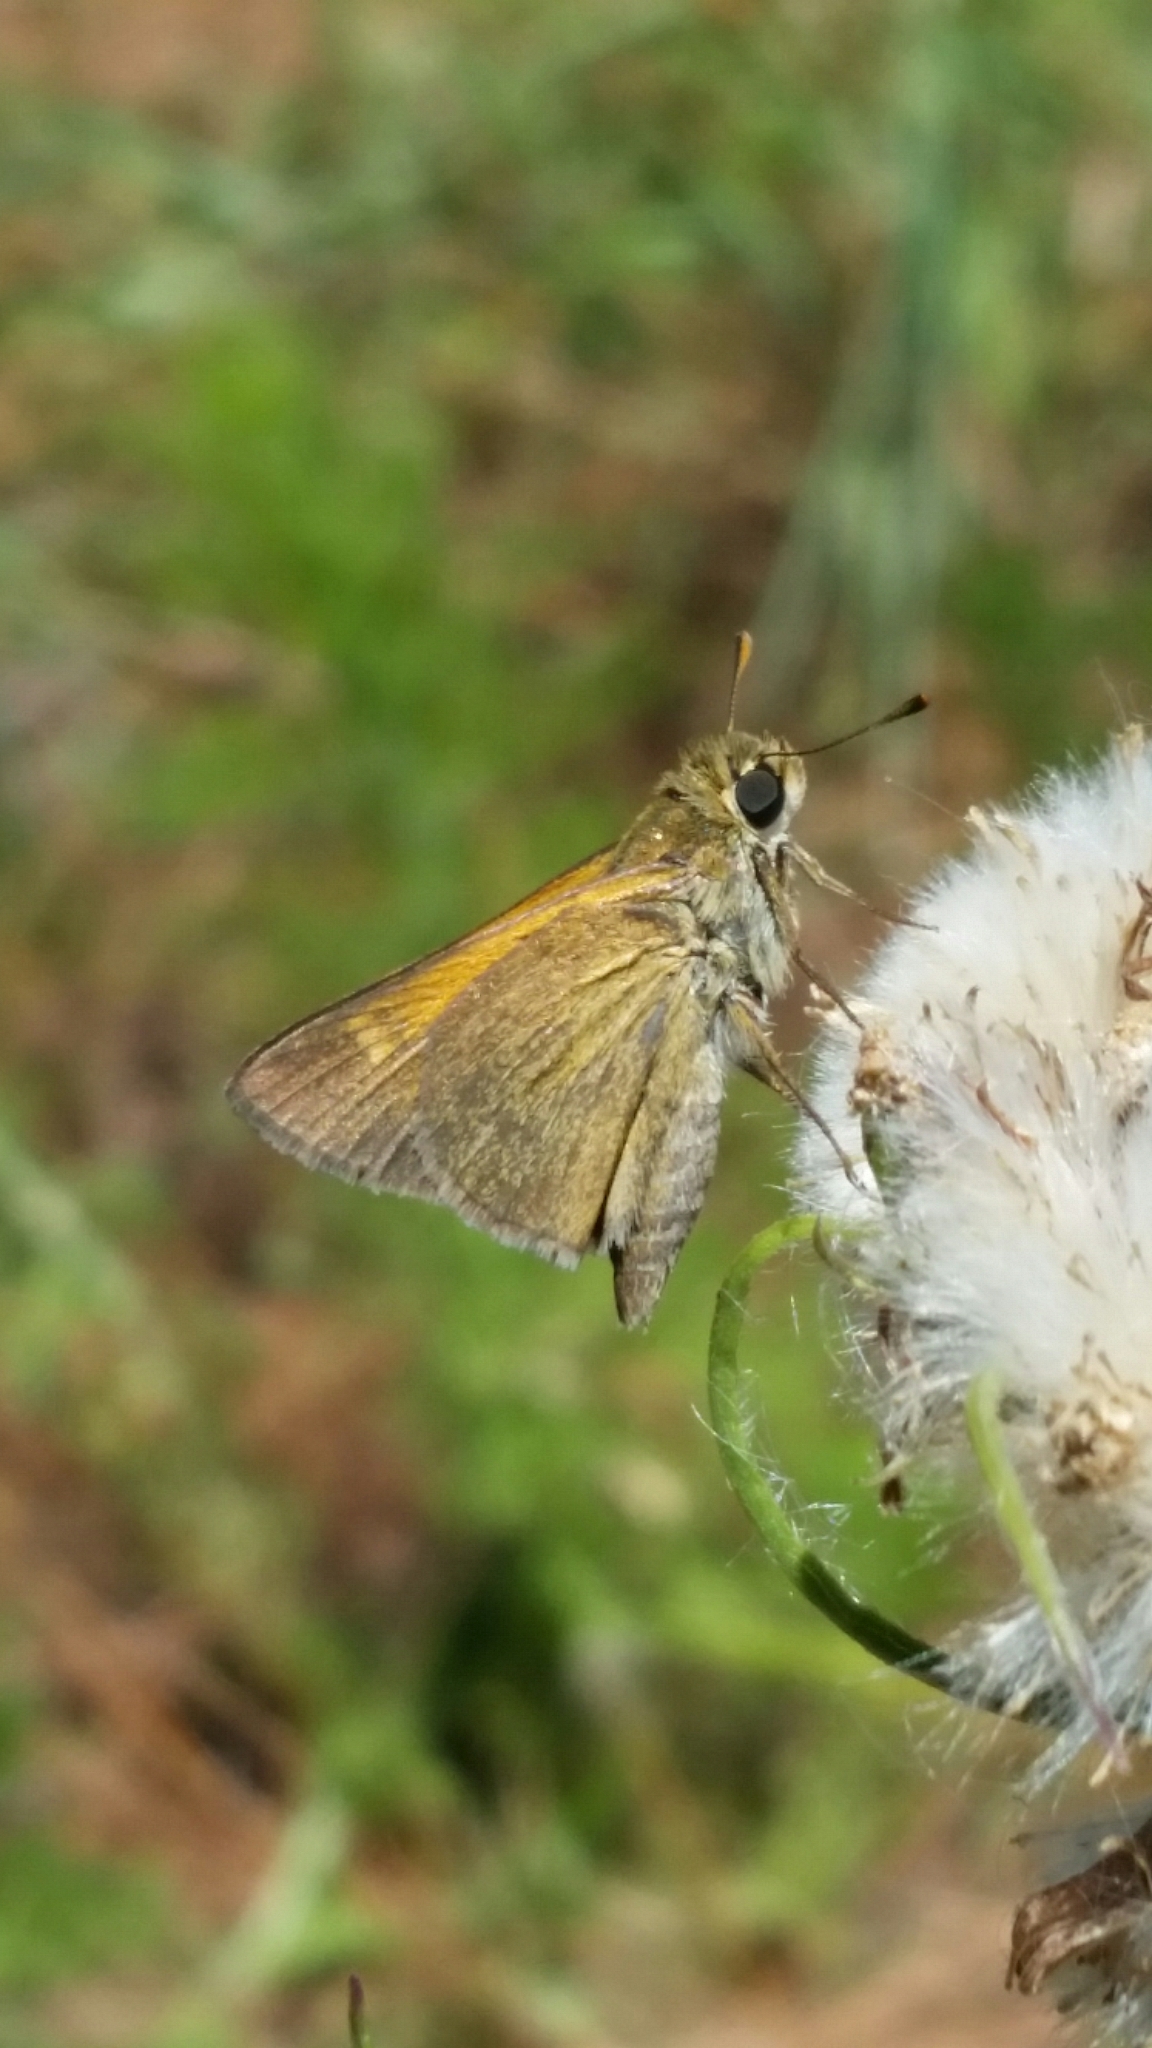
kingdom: Animalia
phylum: Arthropoda
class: Insecta
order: Lepidoptera
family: Hesperiidae
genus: Polites
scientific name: Polites themistocles
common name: Tawny-edged skipper
